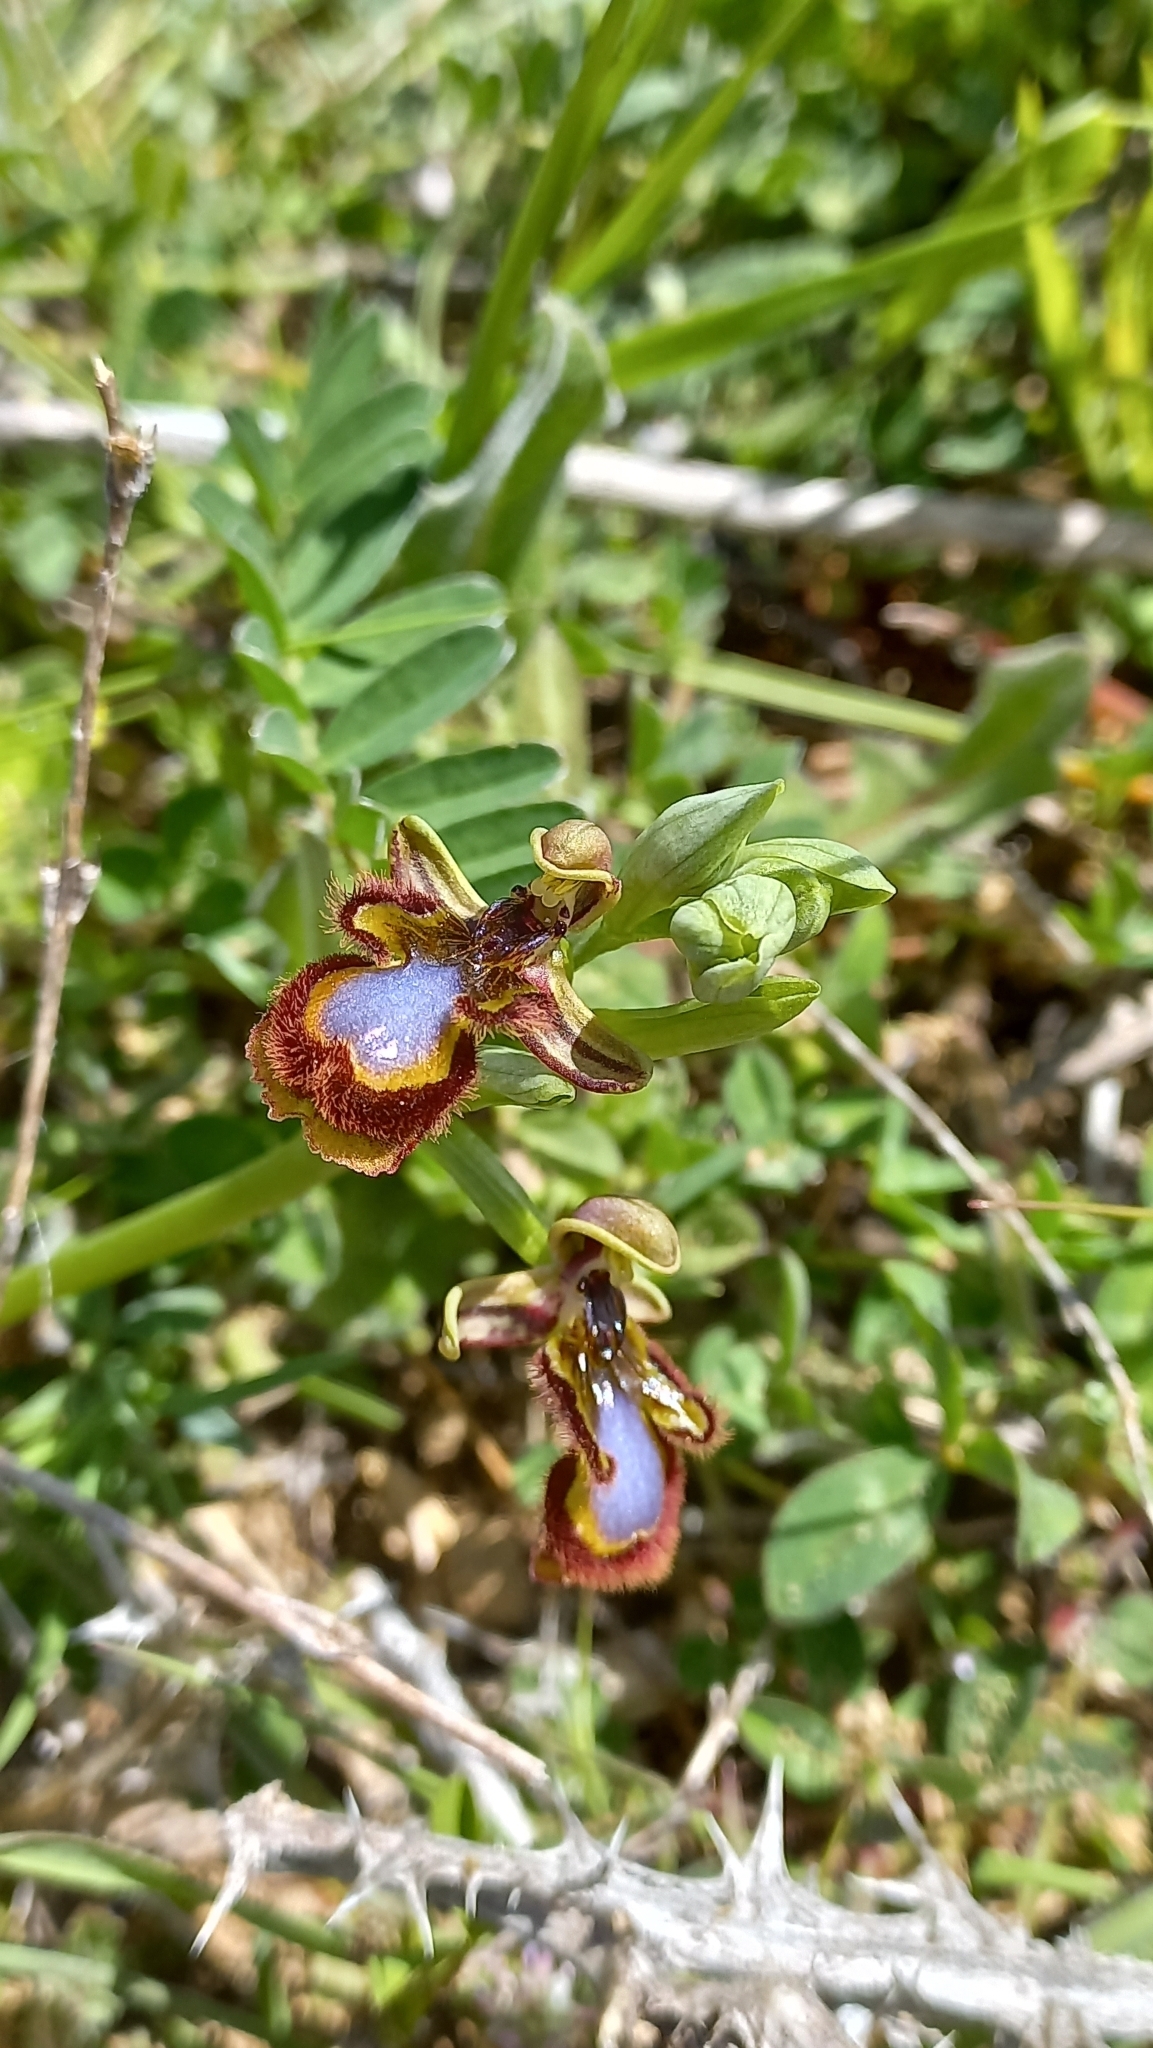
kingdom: Plantae
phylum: Tracheophyta
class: Liliopsida
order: Asparagales
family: Orchidaceae
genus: Ophrys
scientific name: Ophrys speculum
